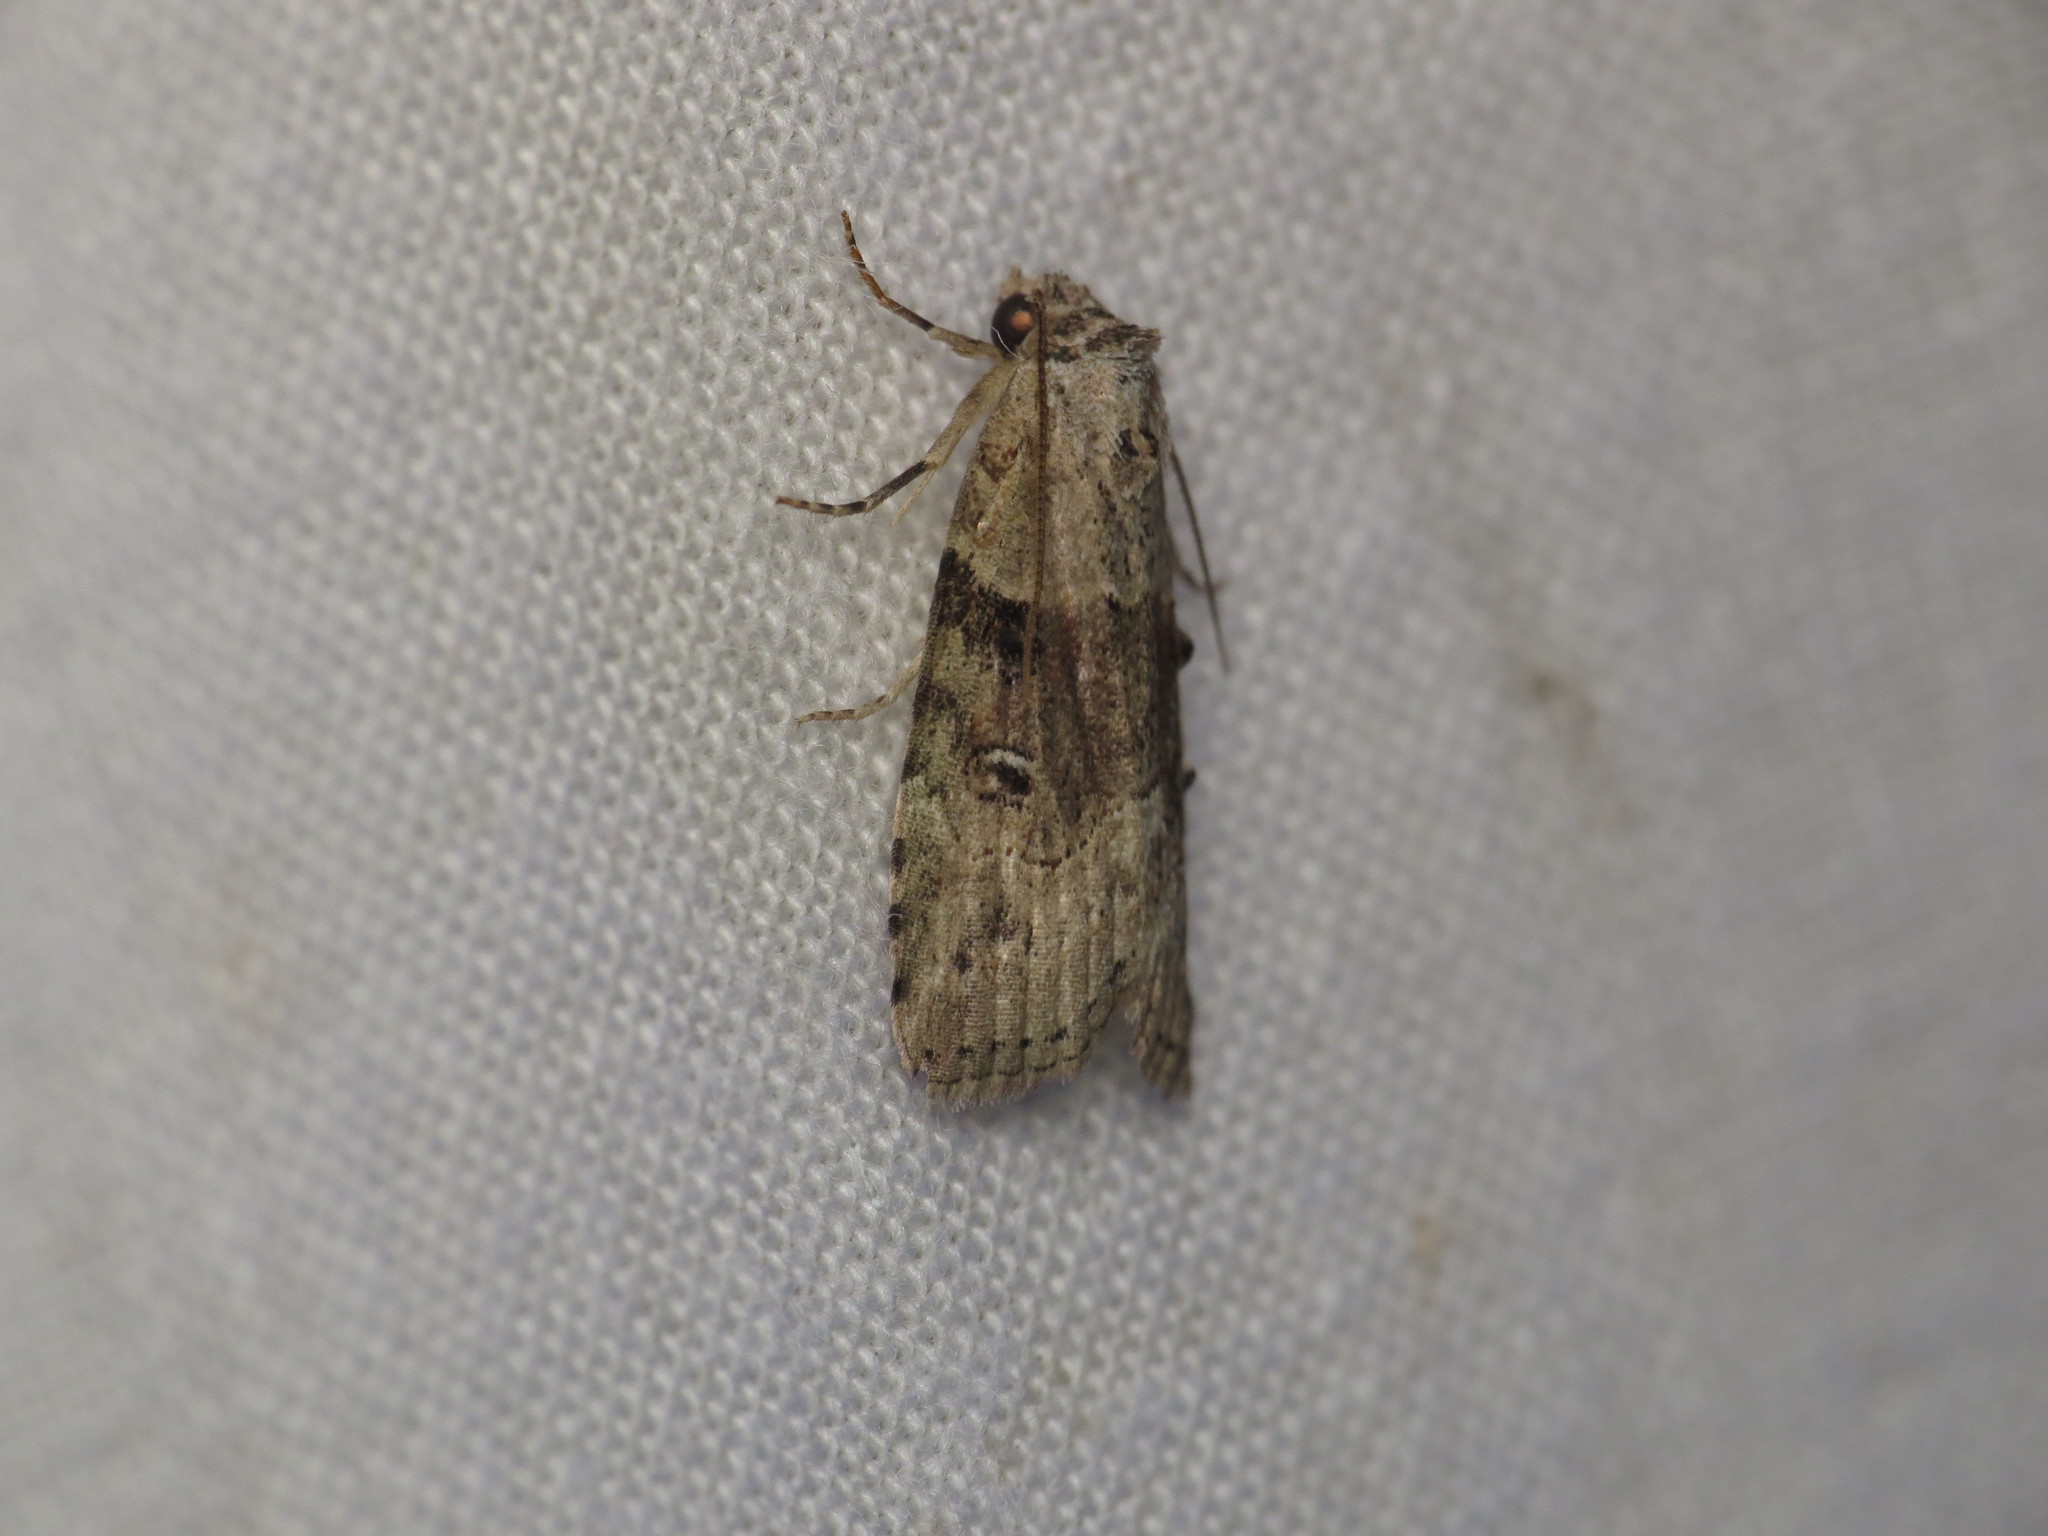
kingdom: Animalia
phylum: Arthropoda
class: Insecta
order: Lepidoptera
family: Nolidae
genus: Calathusa
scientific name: Calathusa cyrtosticha
